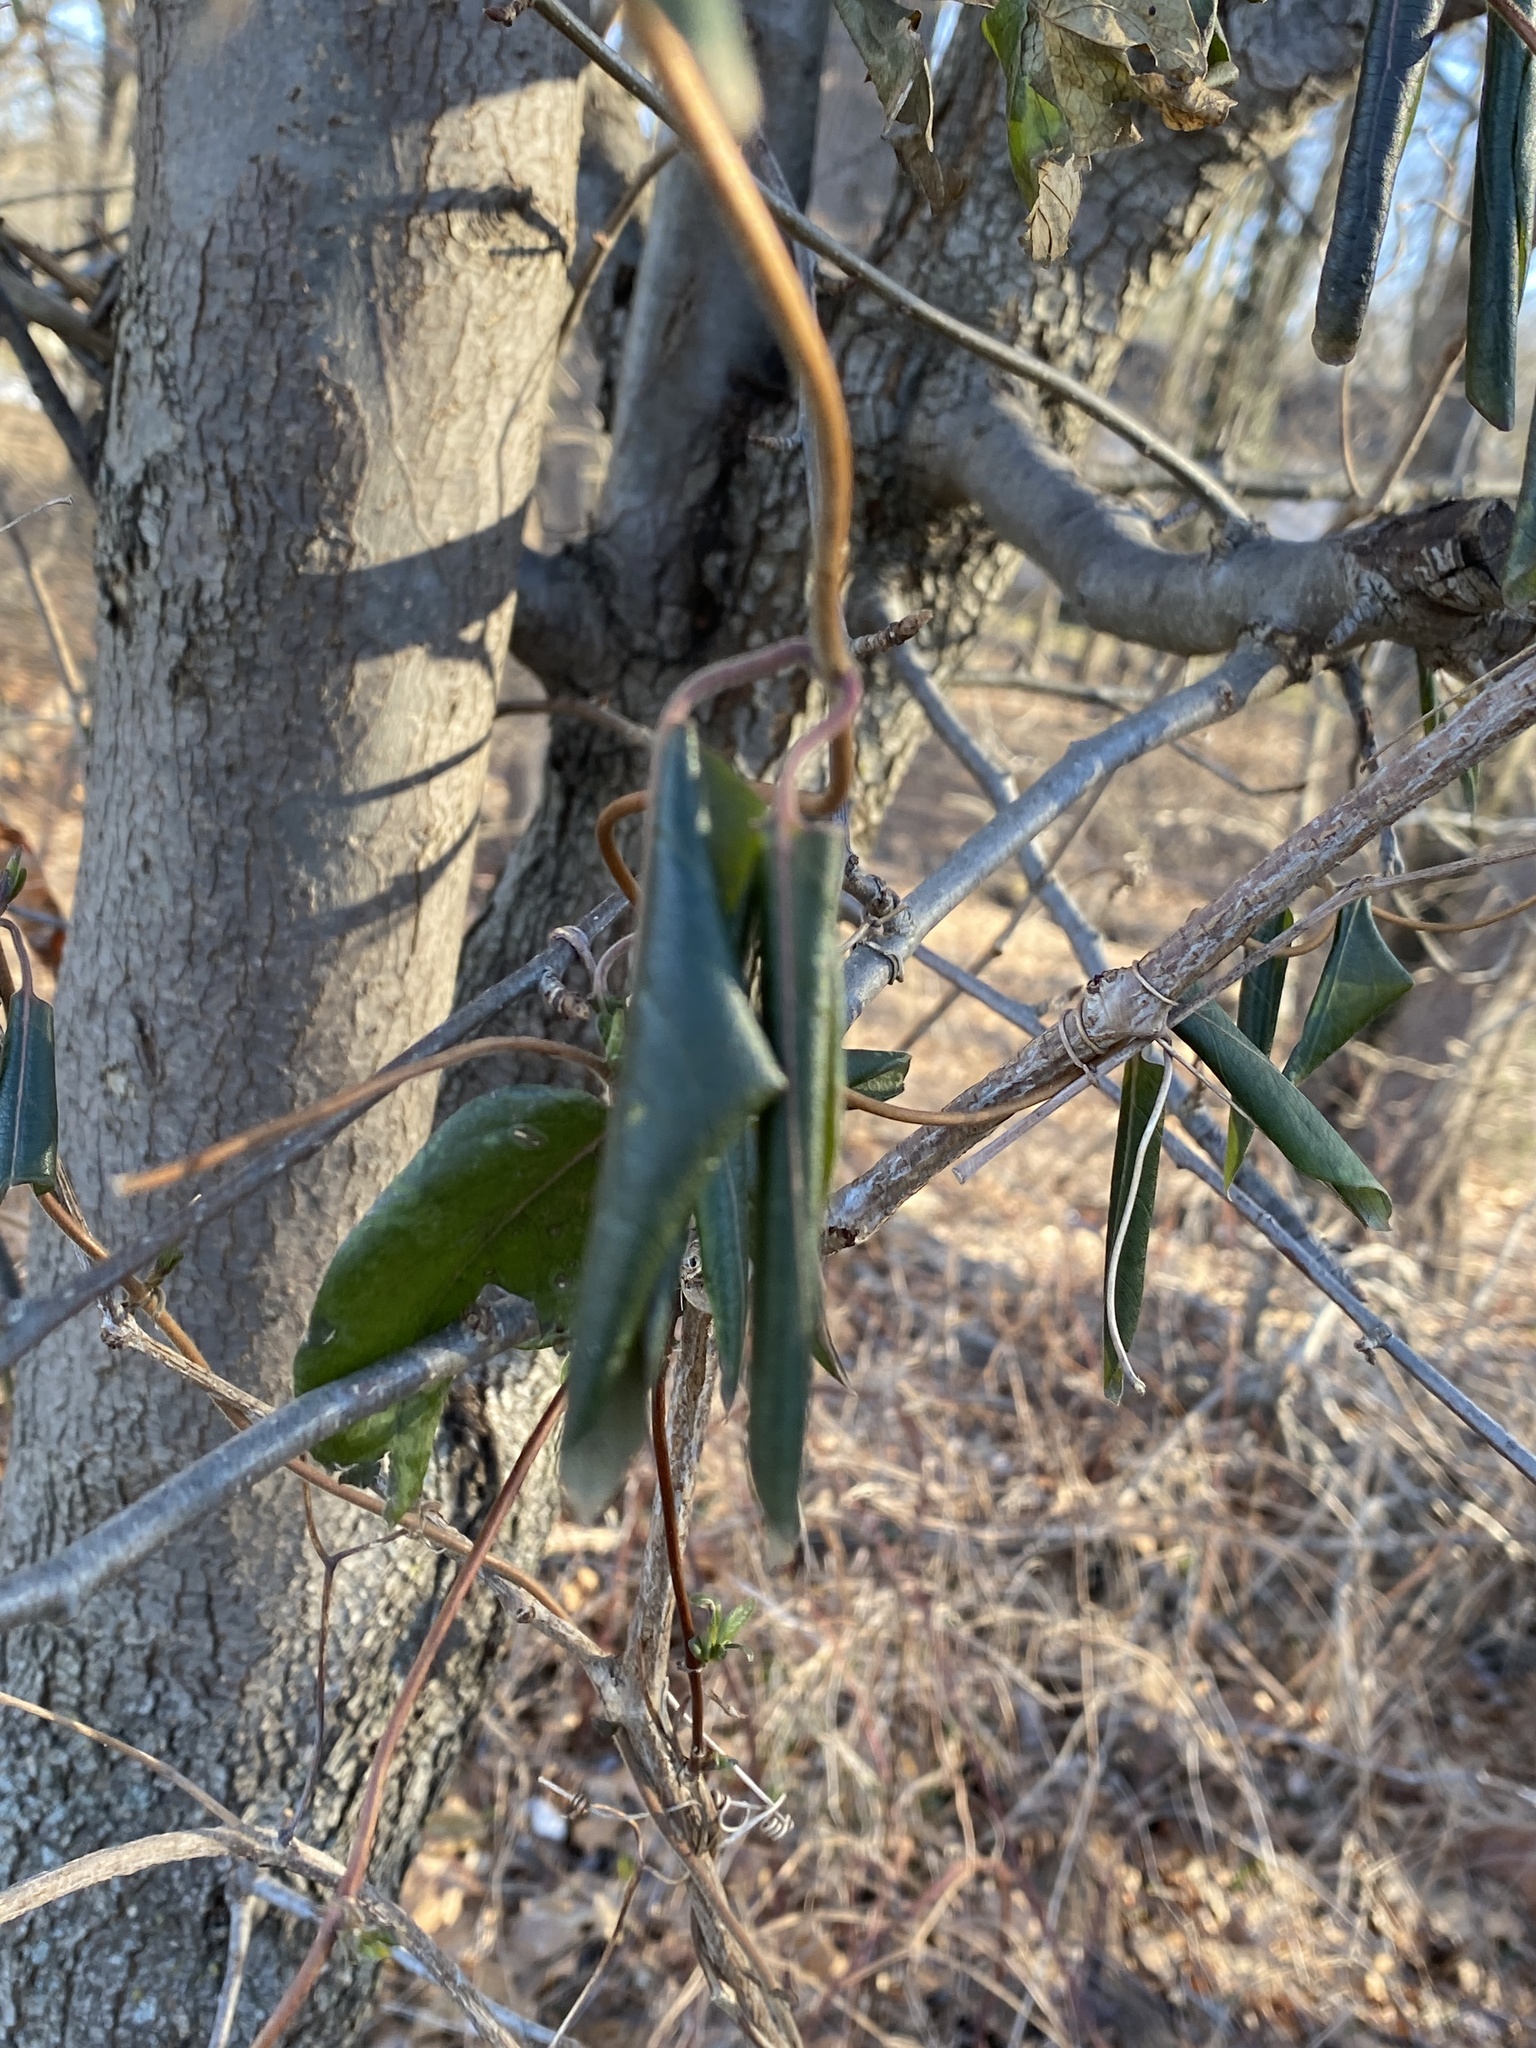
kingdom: Plantae
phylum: Tracheophyta
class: Magnoliopsida
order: Dipsacales
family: Caprifoliaceae
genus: Lonicera
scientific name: Lonicera japonica
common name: Japanese honeysuckle
